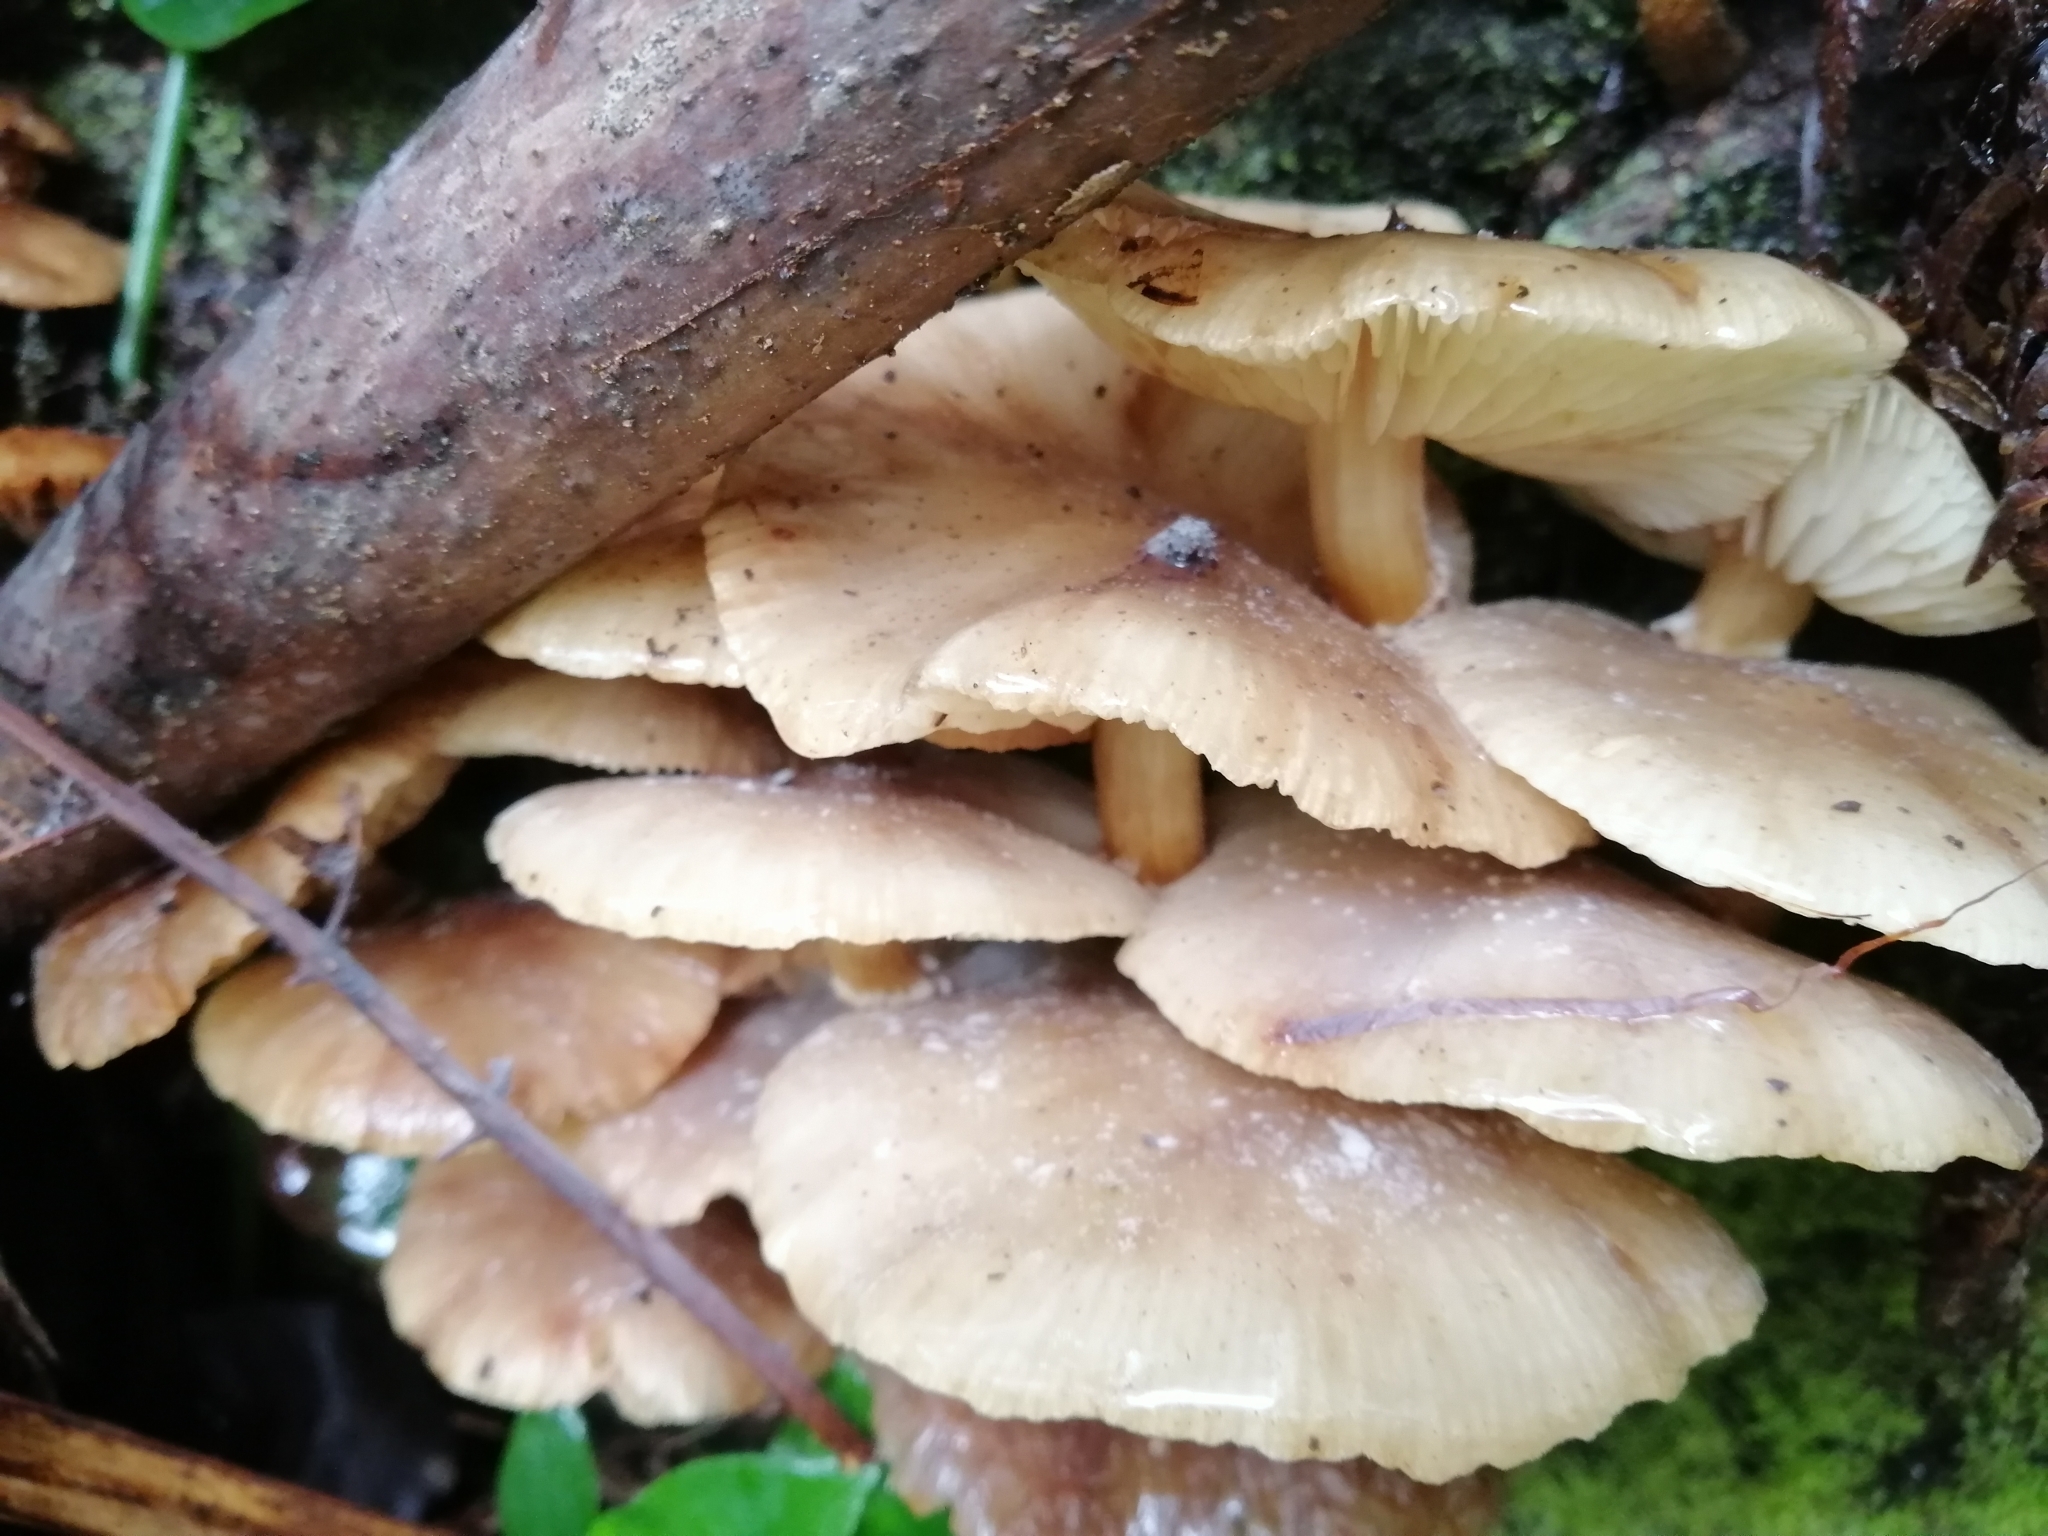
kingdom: Fungi
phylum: Basidiomycota
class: Agaricomycetes
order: Agaricales
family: Physalacriaceae
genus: Armillaria
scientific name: Armillaria novae-zelandiae
